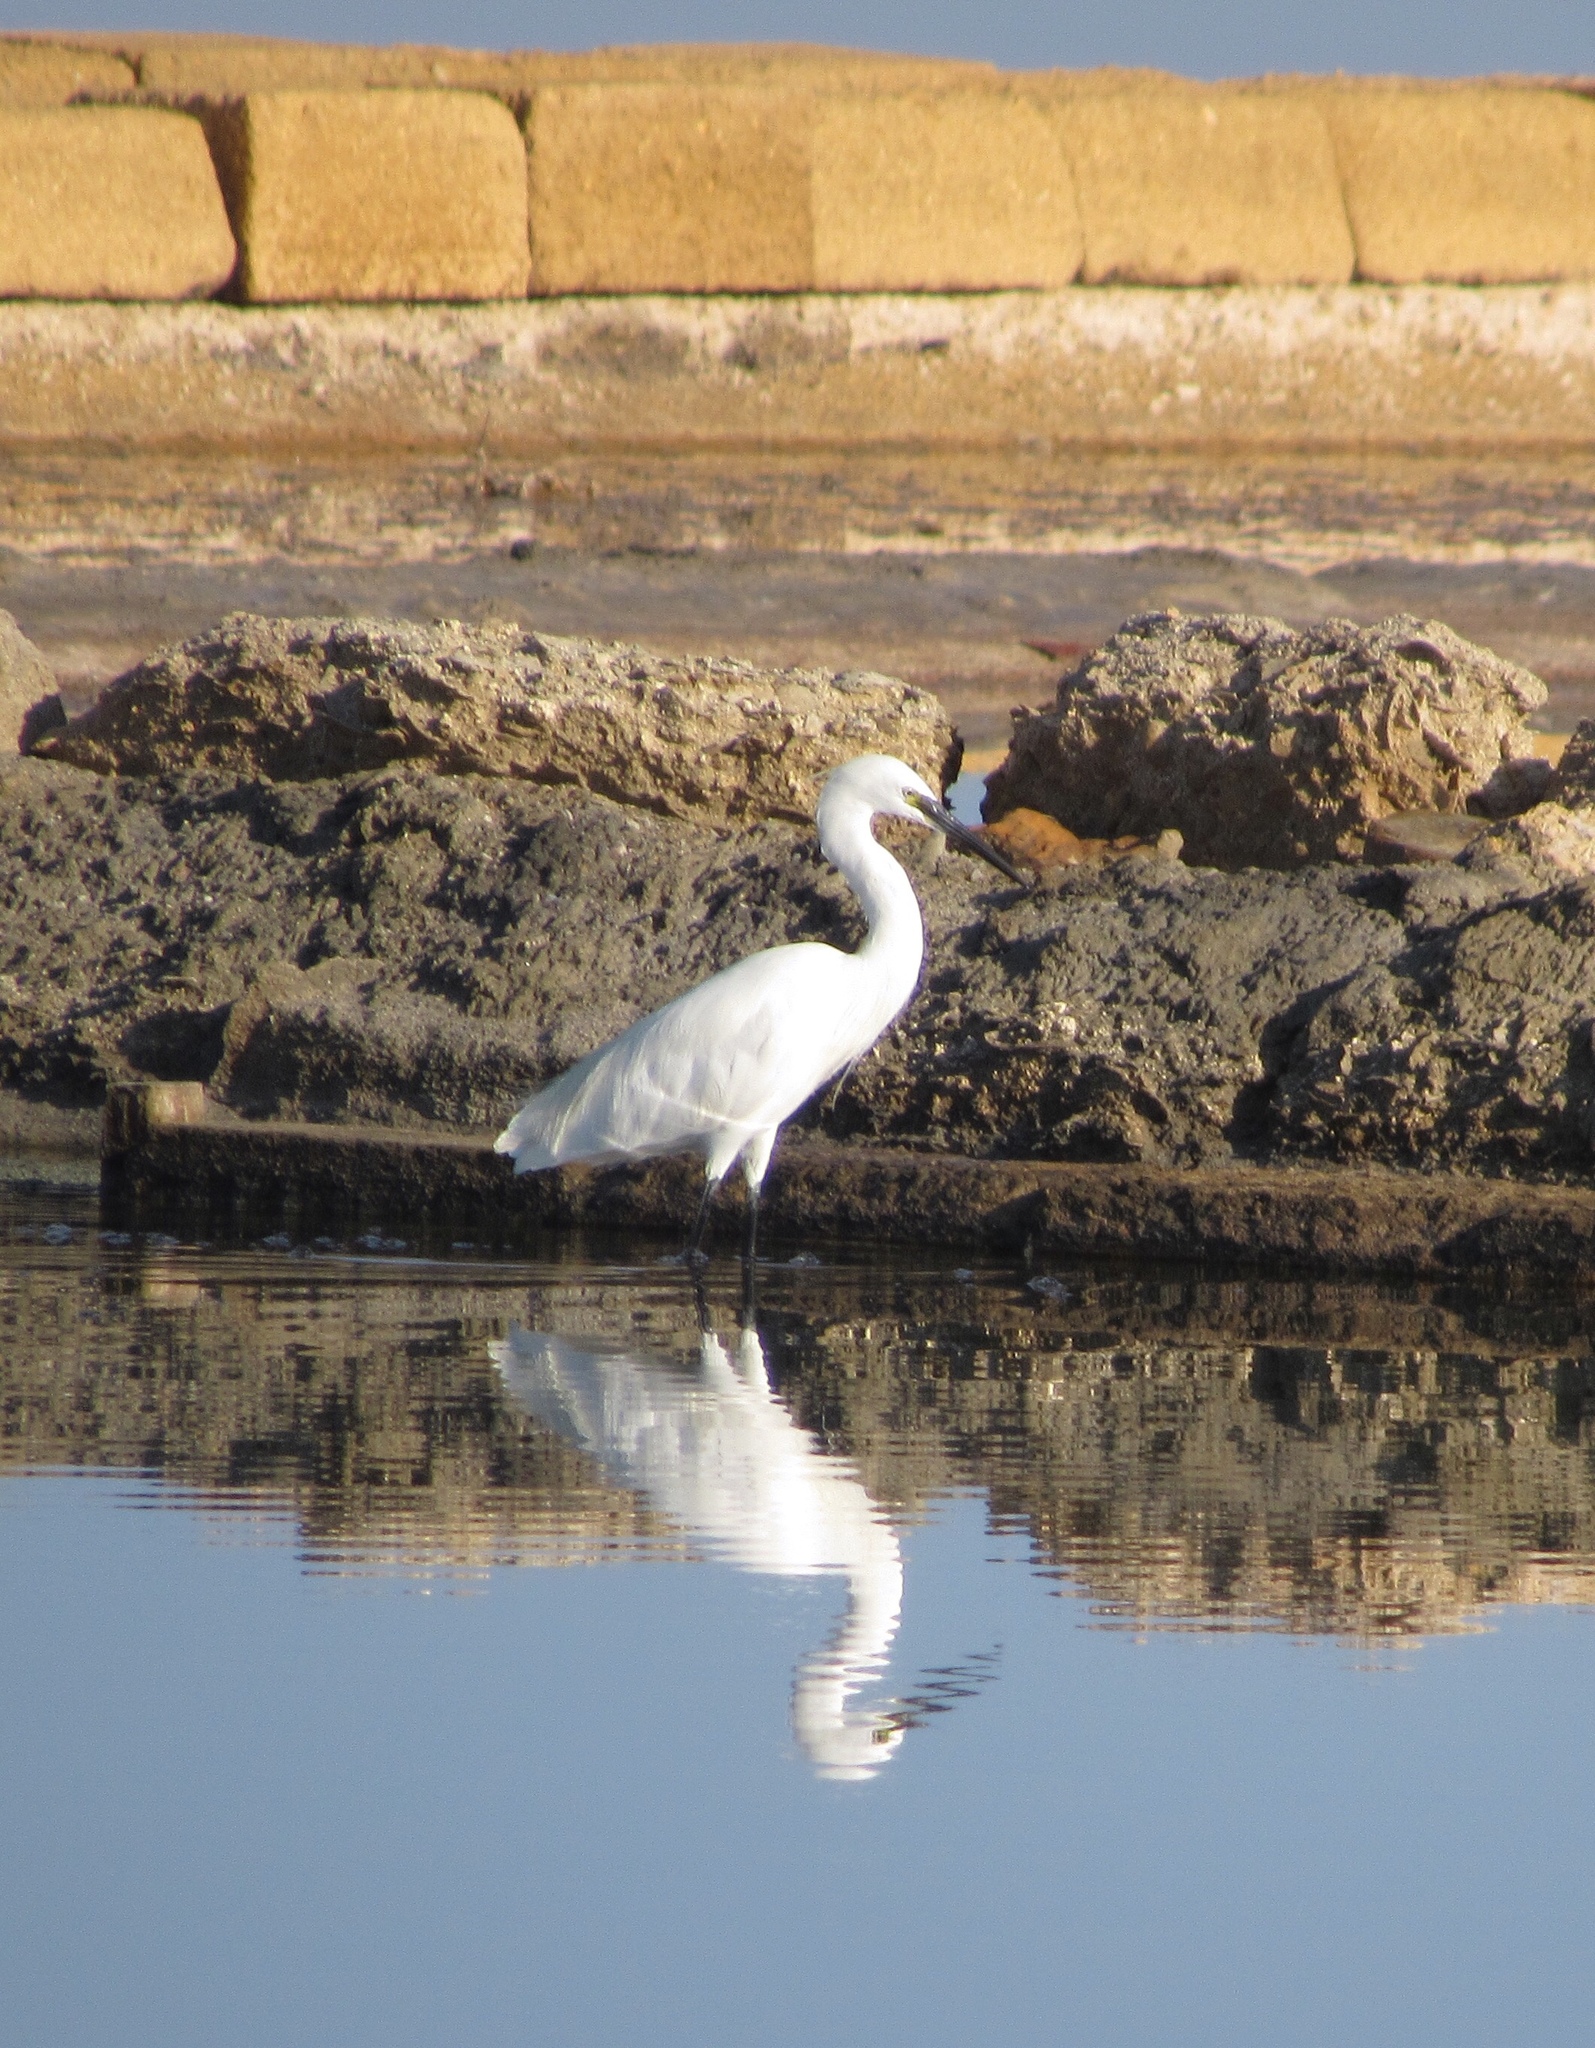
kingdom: Animalia
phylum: Chordata
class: Aves
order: Pelecaniformes
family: Ardeidae
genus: Egretta
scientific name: Egretta garzetta
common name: Little egret
